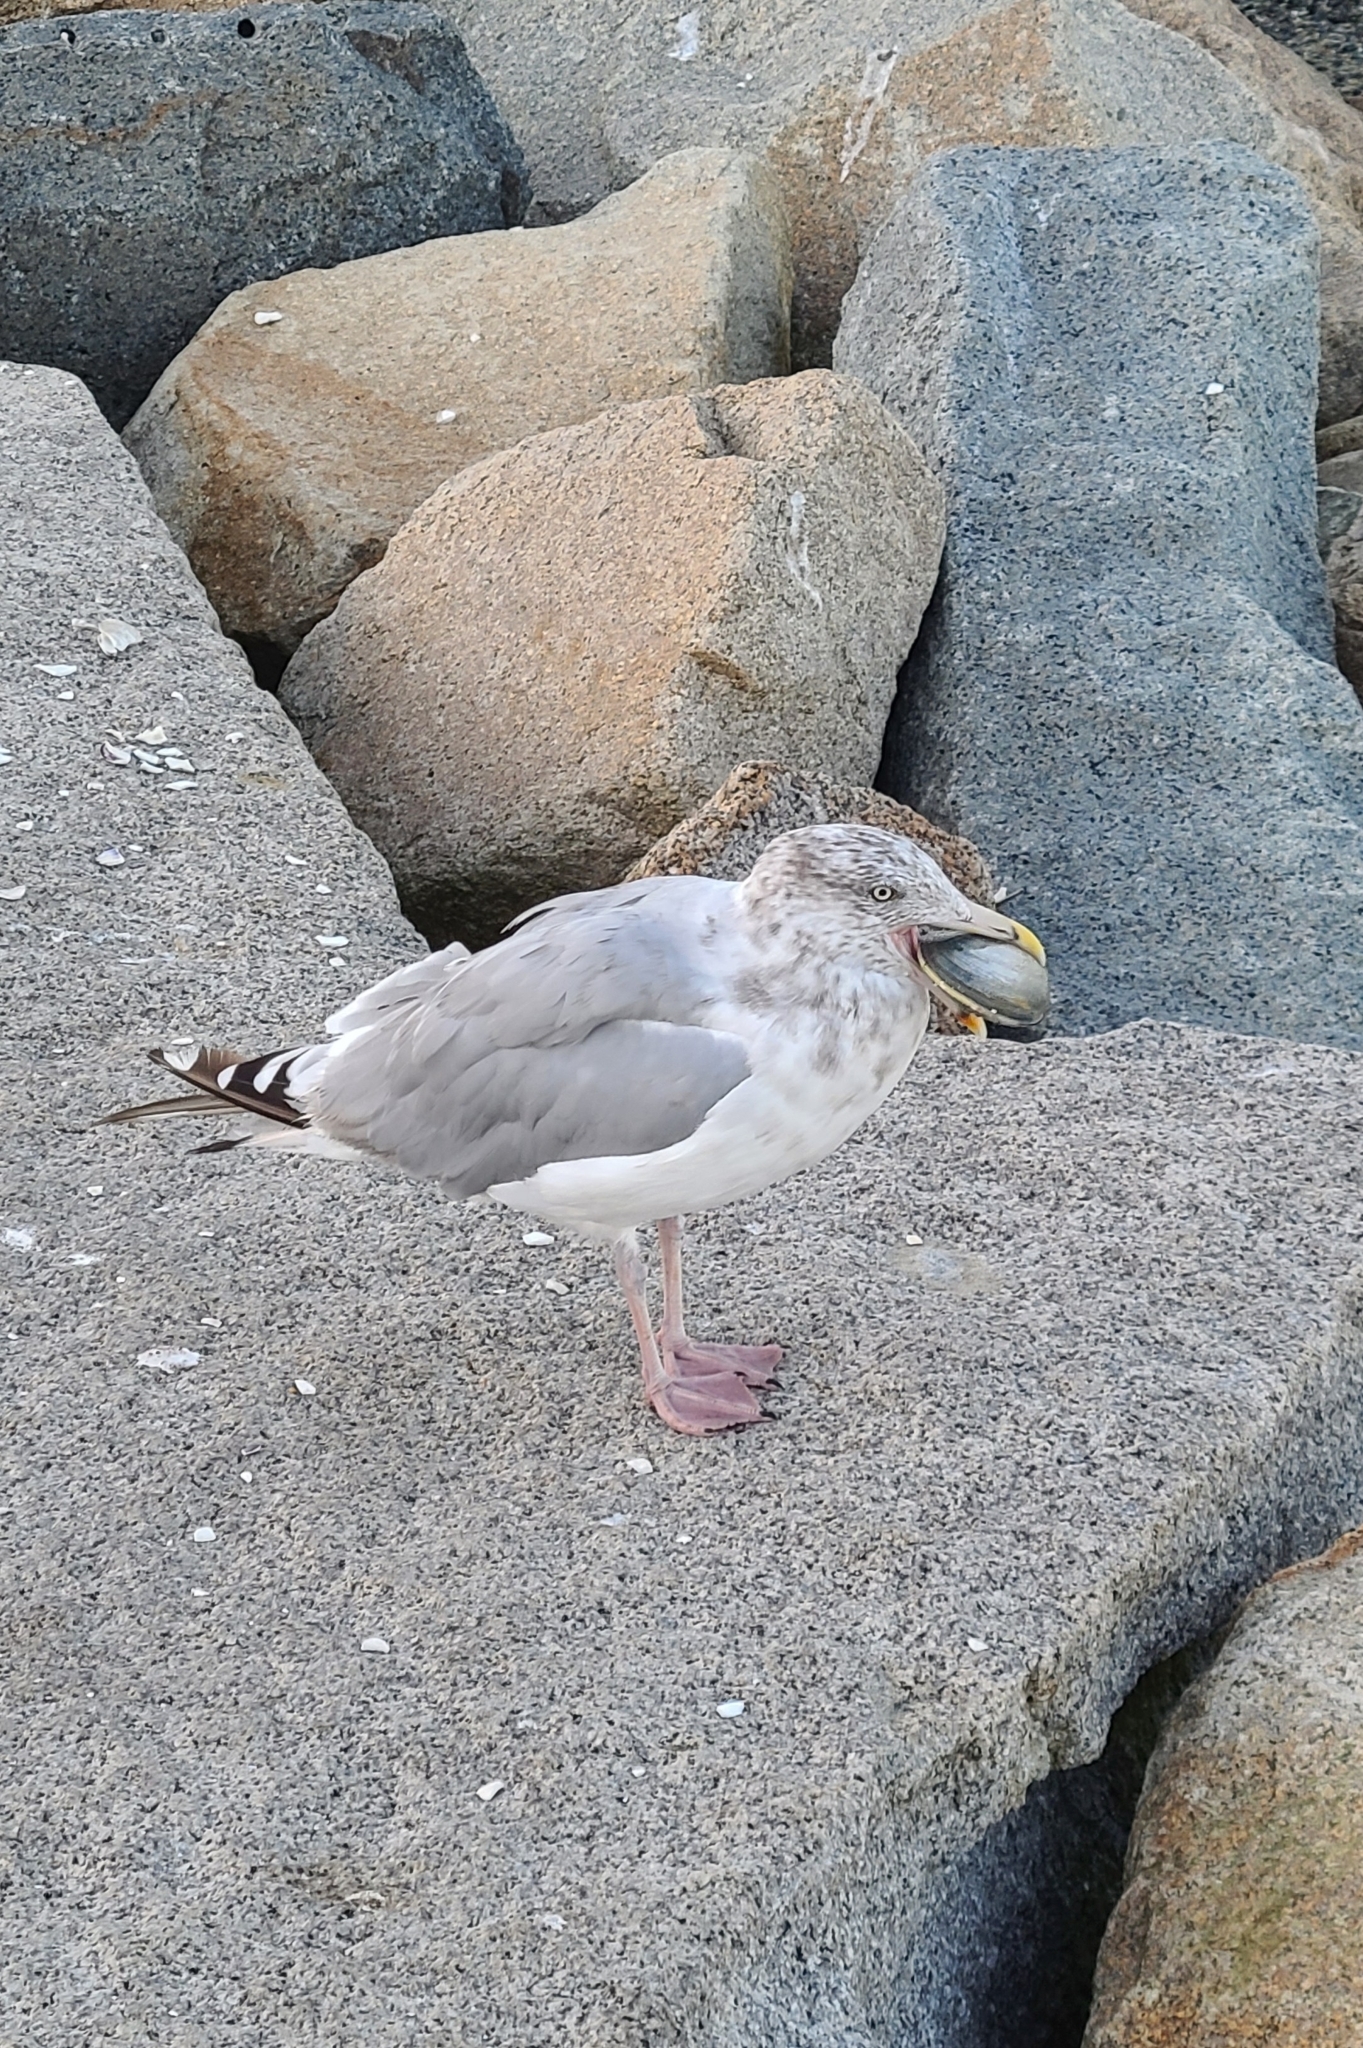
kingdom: Animalia
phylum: Chordata
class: Aves
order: Charadriiformes
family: Laridae
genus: Larus
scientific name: Larus argentatus
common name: Herring gull
